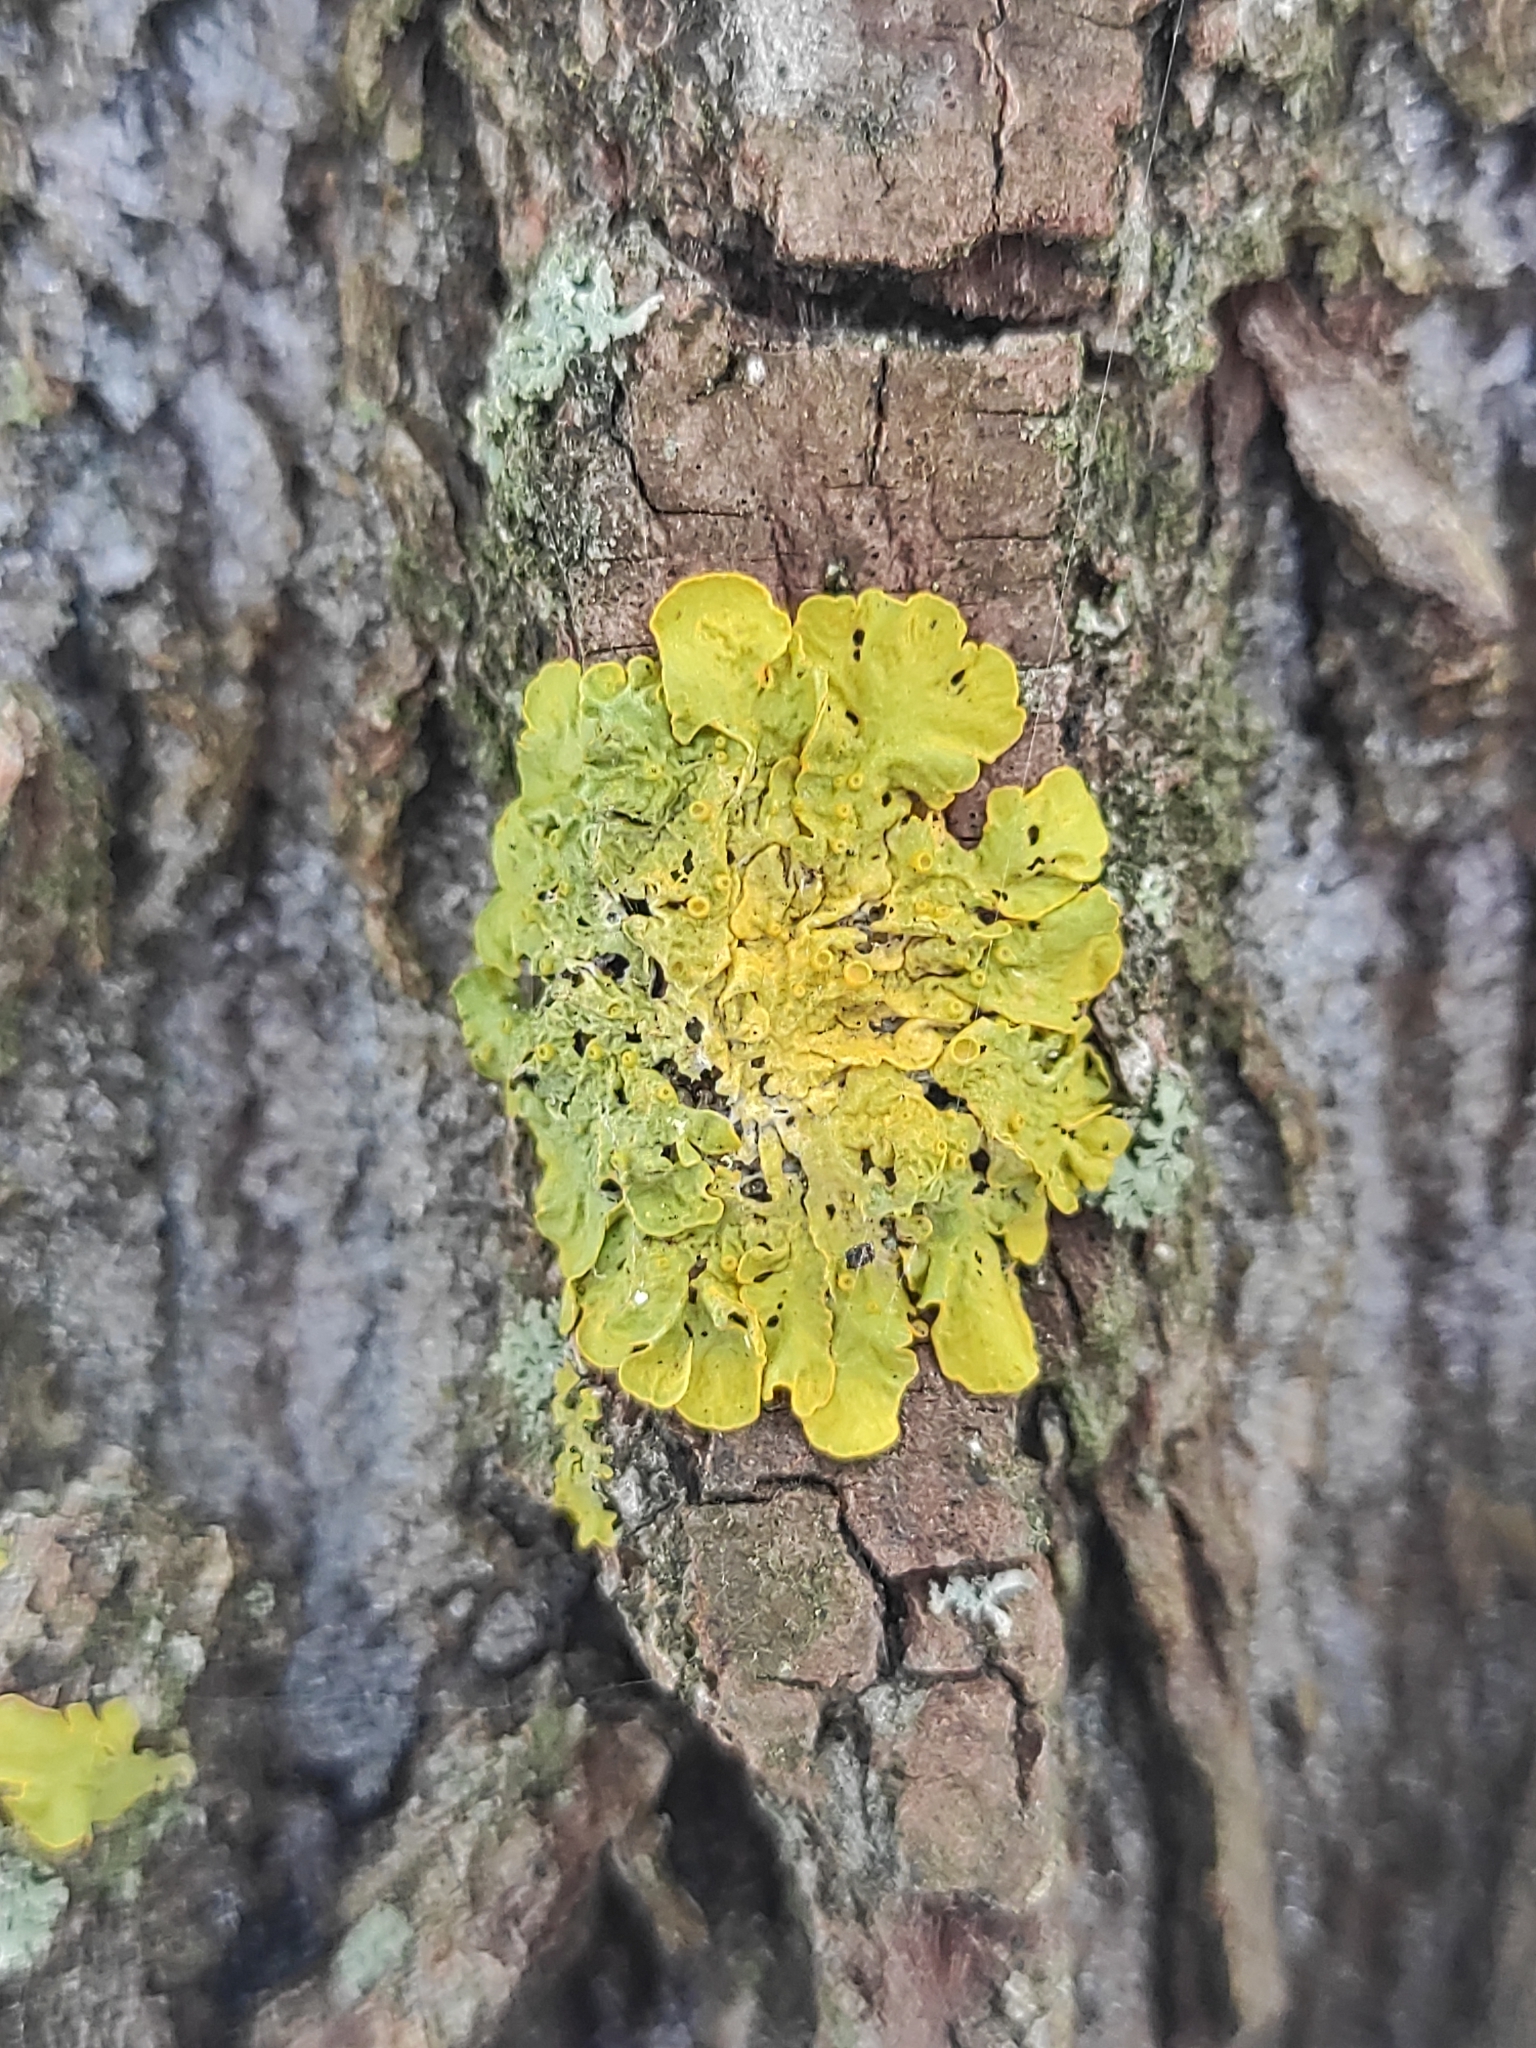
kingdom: Fungi
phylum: Ascomycota
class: Lecanoromycetes
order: Teloschistales
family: Teloschistaceae
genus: Xanthoria
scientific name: Xanthoria parietina
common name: Common orange lichen
